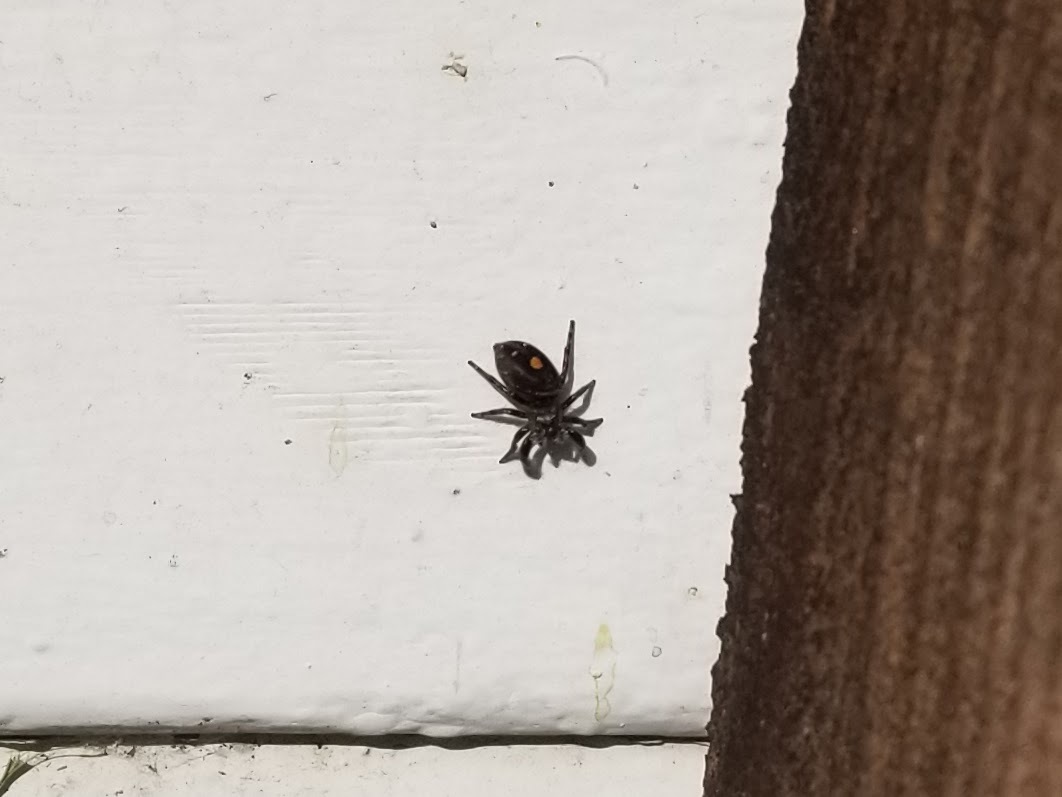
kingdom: Animalia
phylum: Arthropoda
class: Arachnida
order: Araneae
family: Salticidae
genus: Phidippus
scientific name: Phidippus audax
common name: Bold jumper
